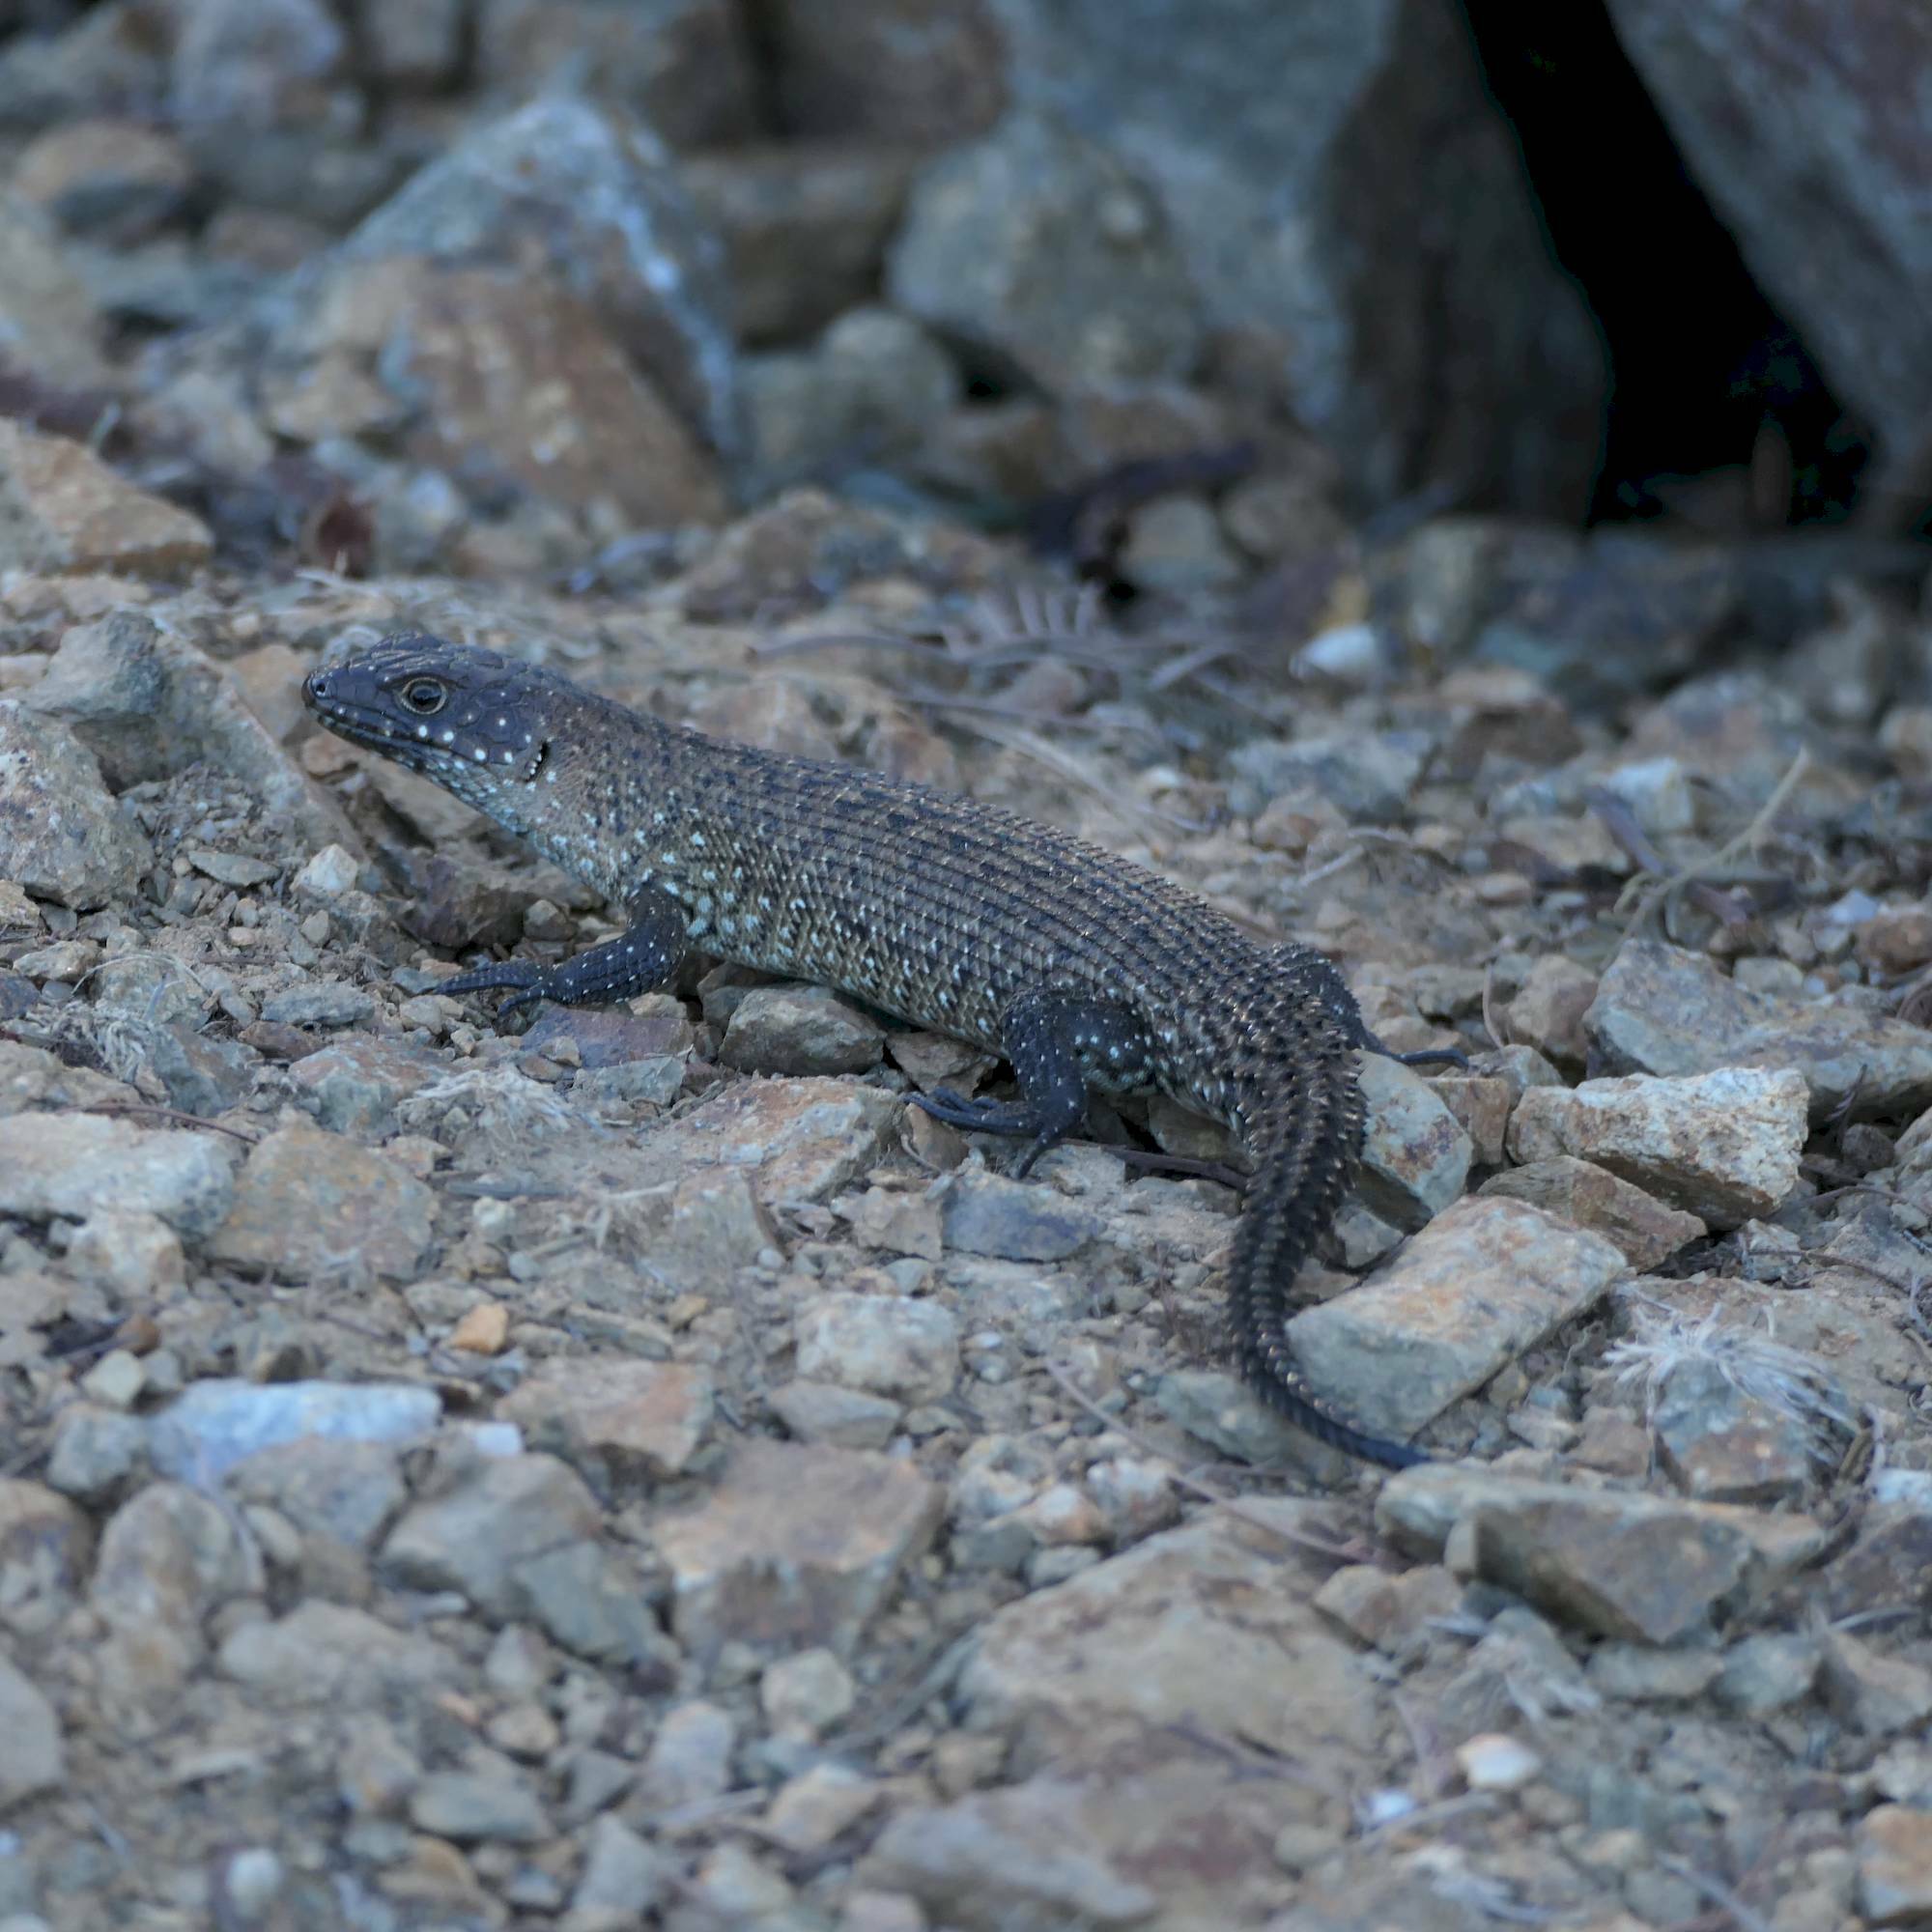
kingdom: Animalia
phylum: Chordata
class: Squamata
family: Scincidae
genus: Egernia
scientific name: Egernia cunninghami
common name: Cunningham's skink
